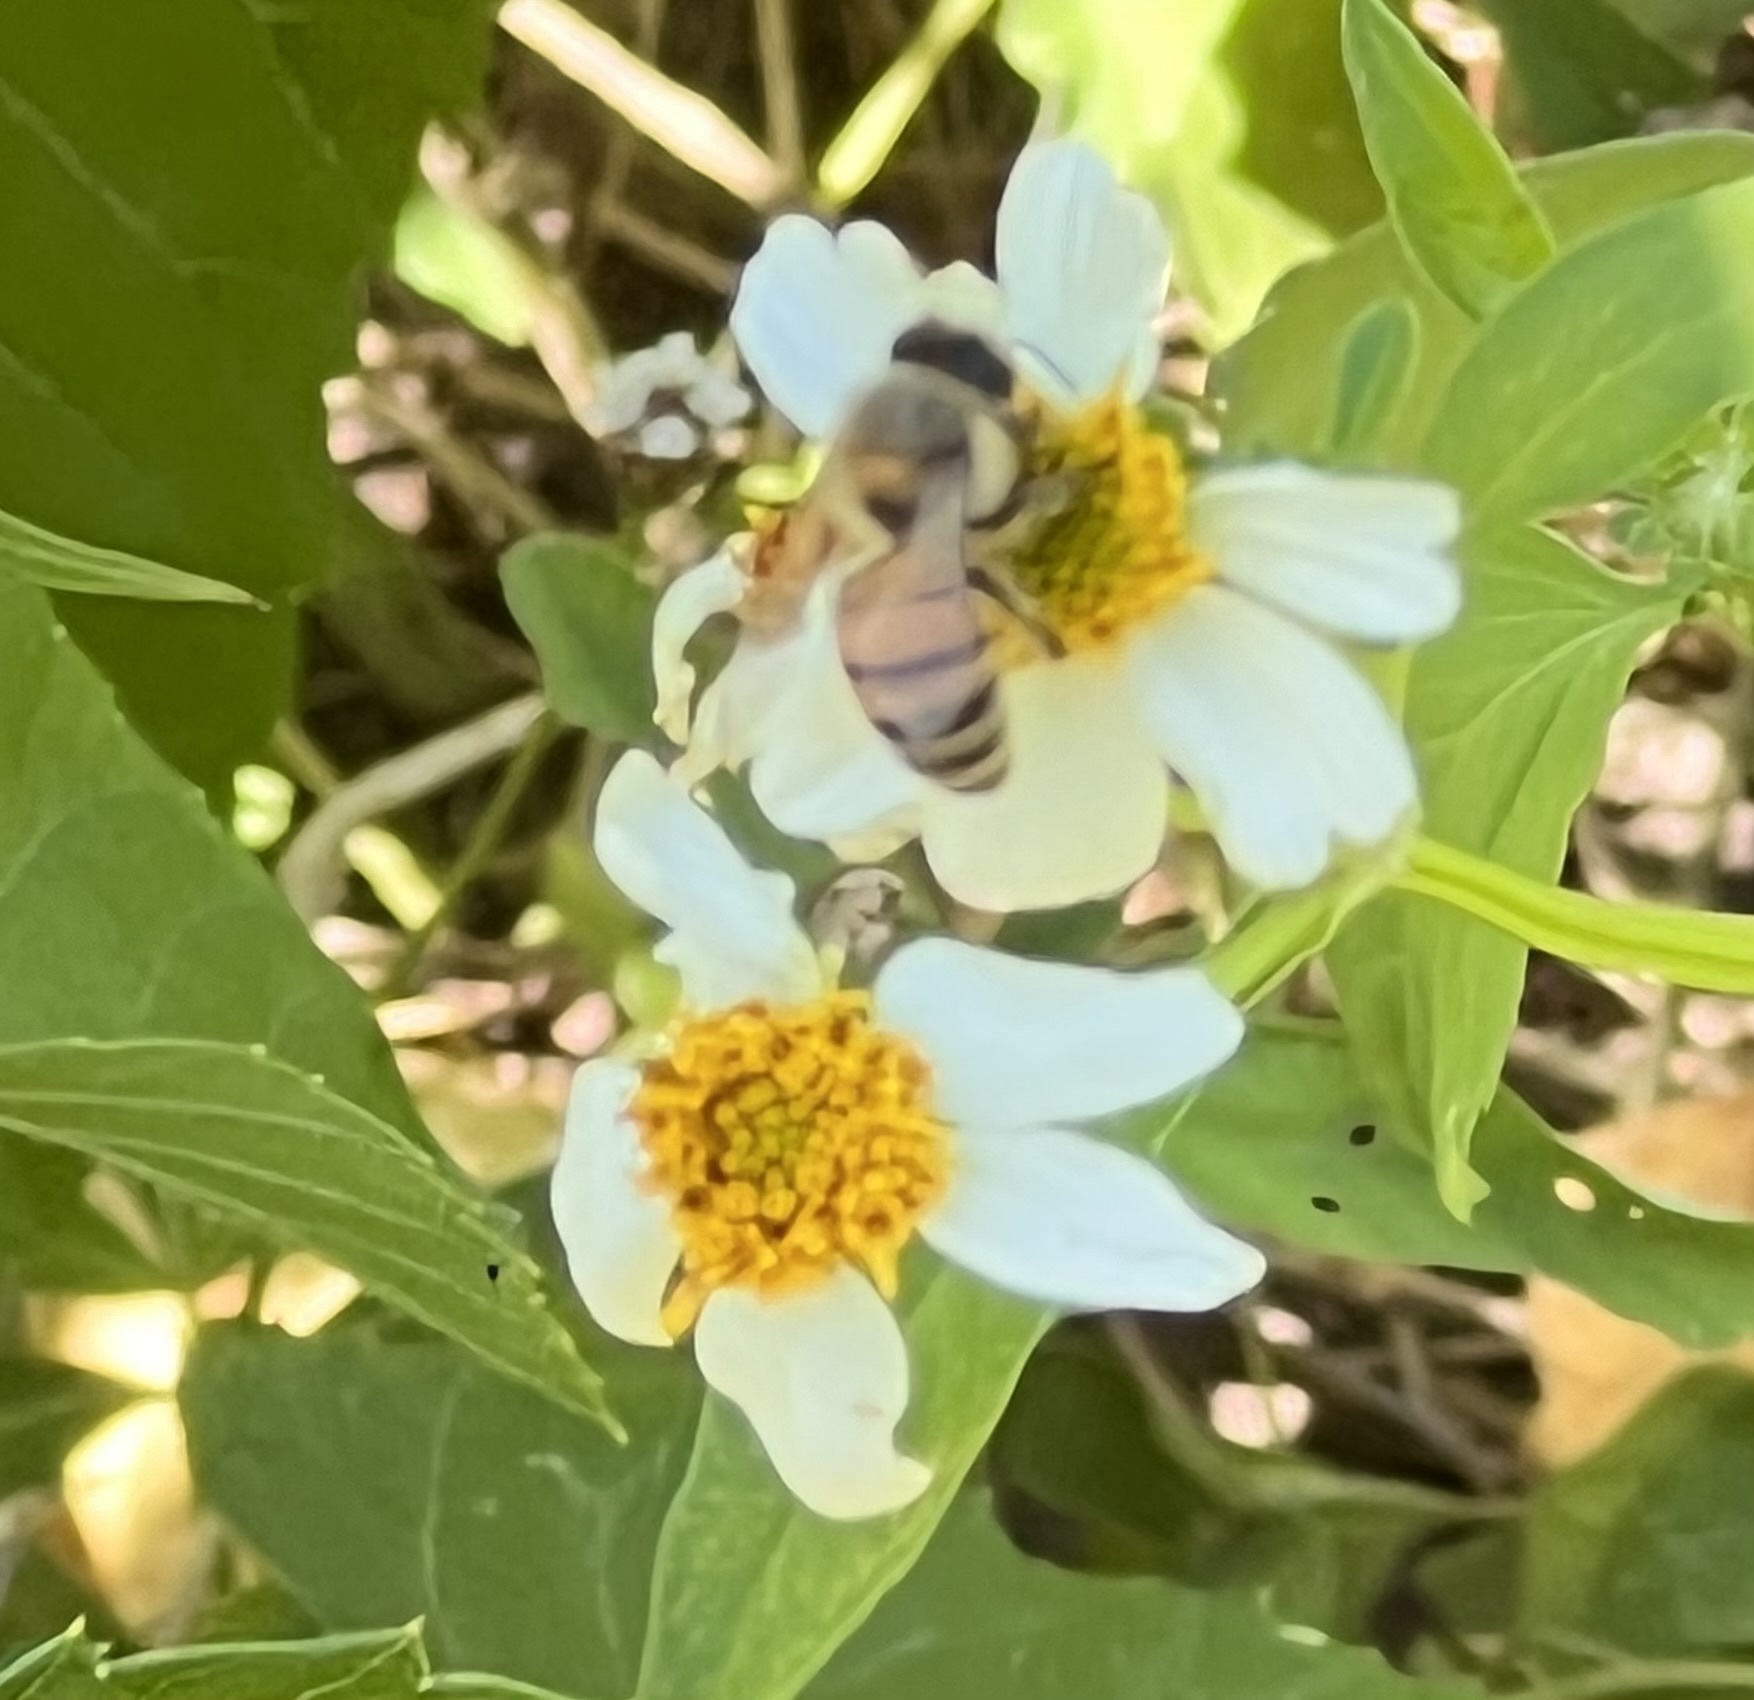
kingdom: Animalia
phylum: Arthropoda
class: Insecta
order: Hymenoptera
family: Apidae
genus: Apis
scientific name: Apis mellifera
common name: Honey bee
